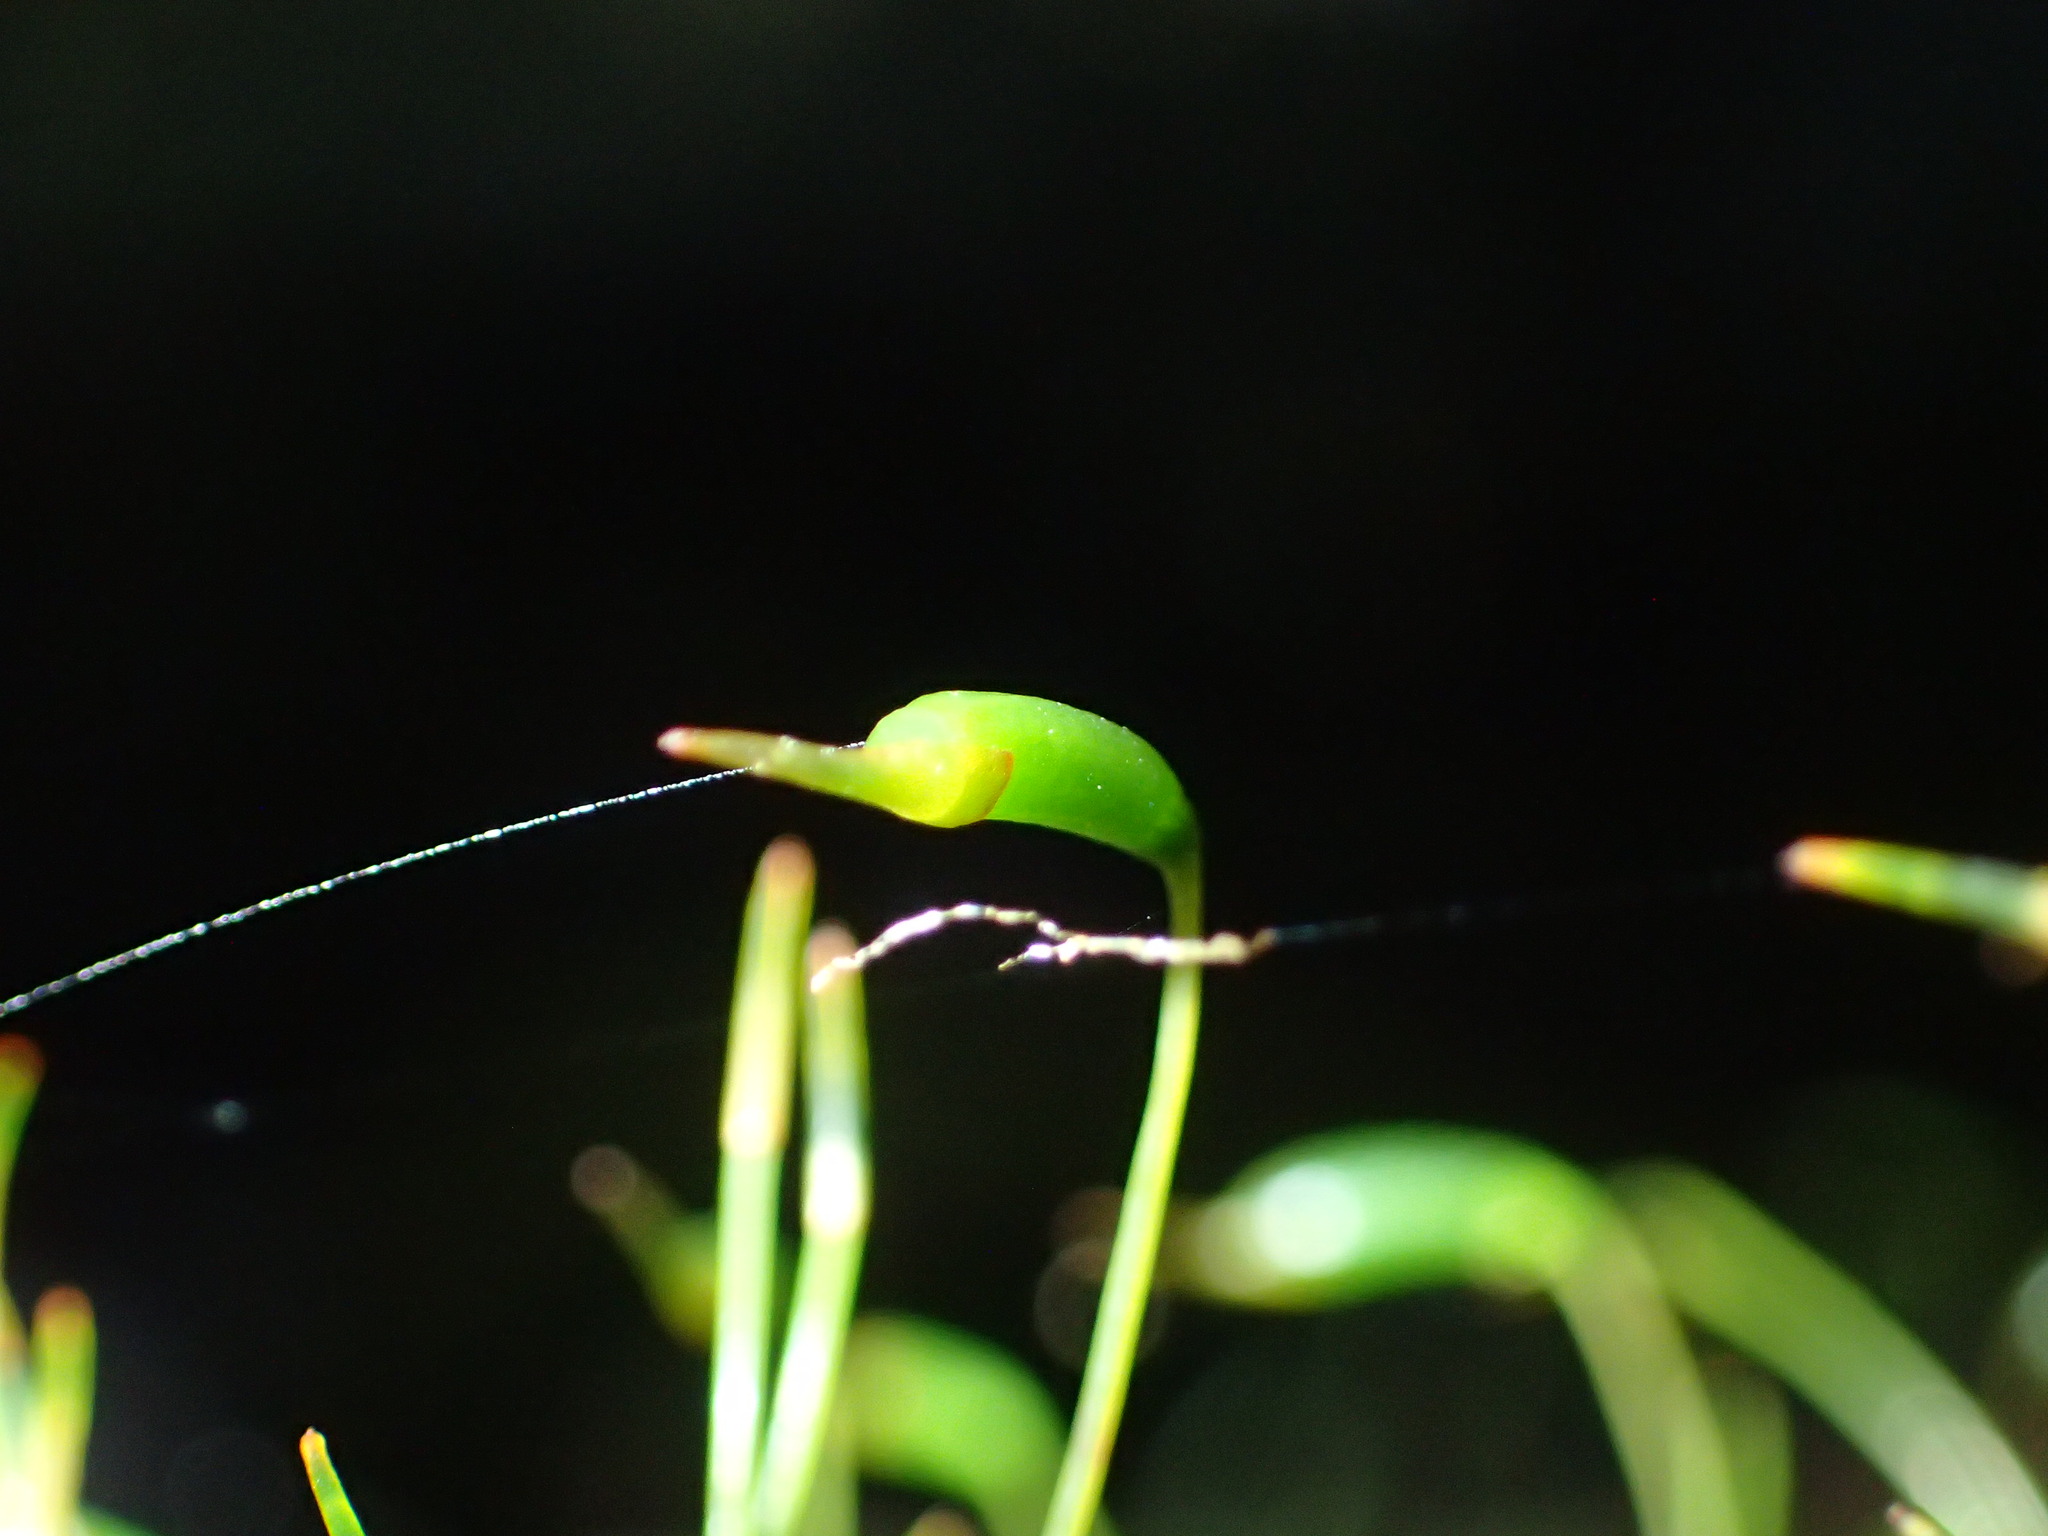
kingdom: Plantae
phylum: Bryophyta
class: Bryopsida
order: Hypnodendrales
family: Spiridentaceae
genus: Hypnodendron
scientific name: Hypnodendron vitiense
